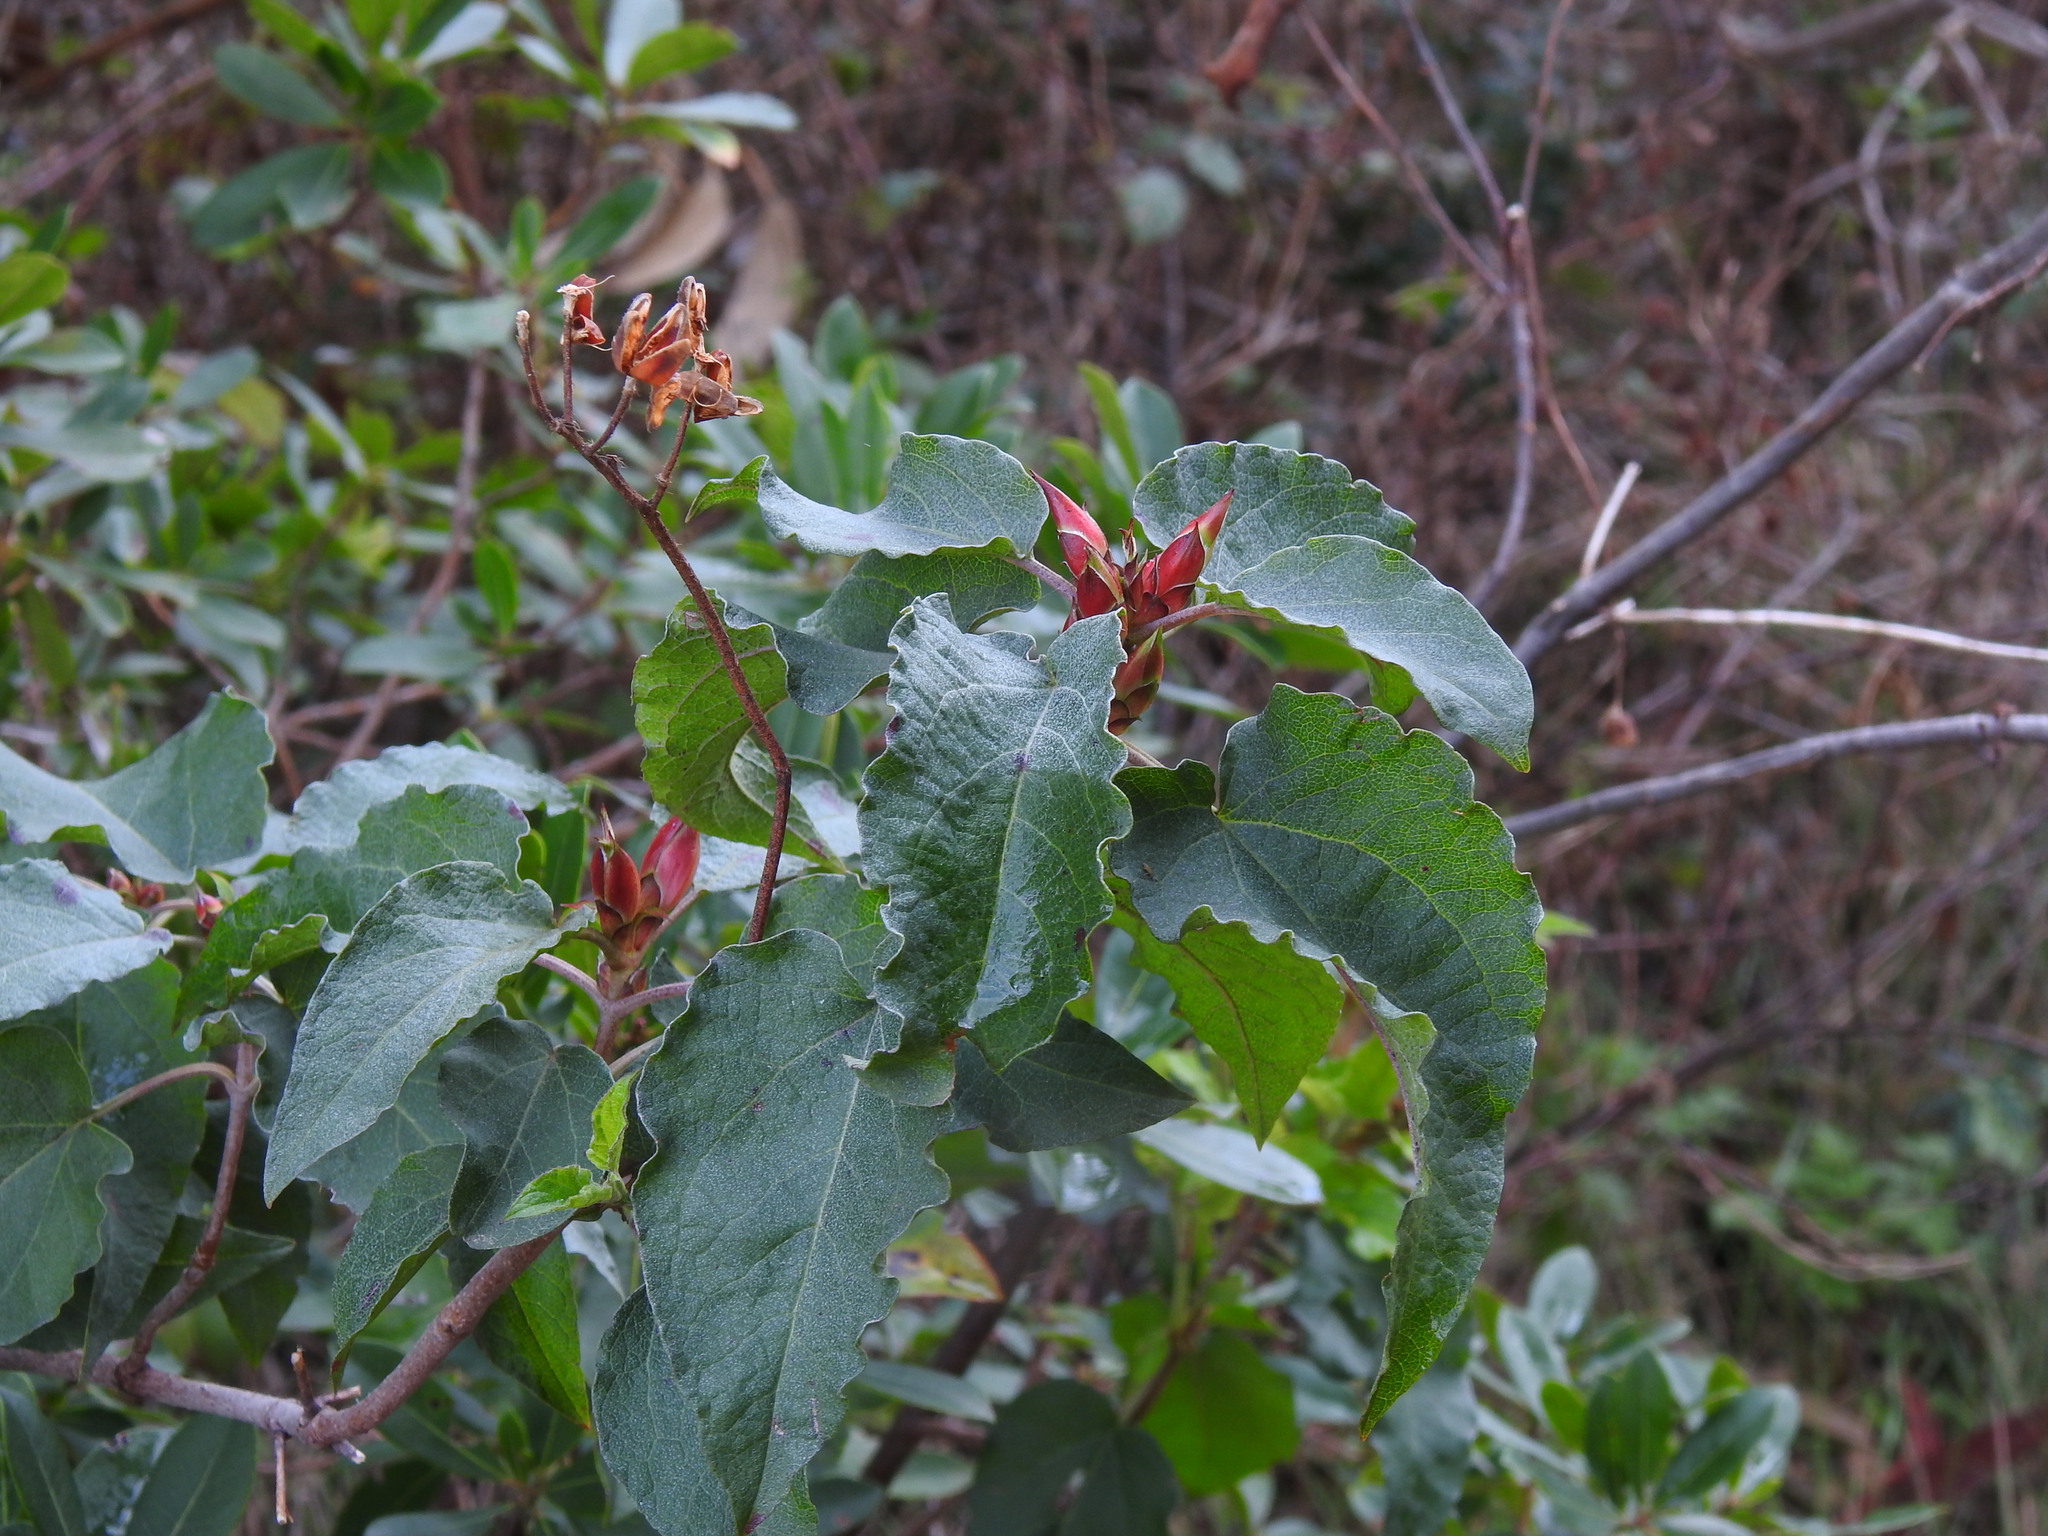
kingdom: Plantae
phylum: Tracheophyta
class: Magnoliopsida
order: Malvales
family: Cistaceae
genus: Cistus
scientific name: Cistus populifolius
